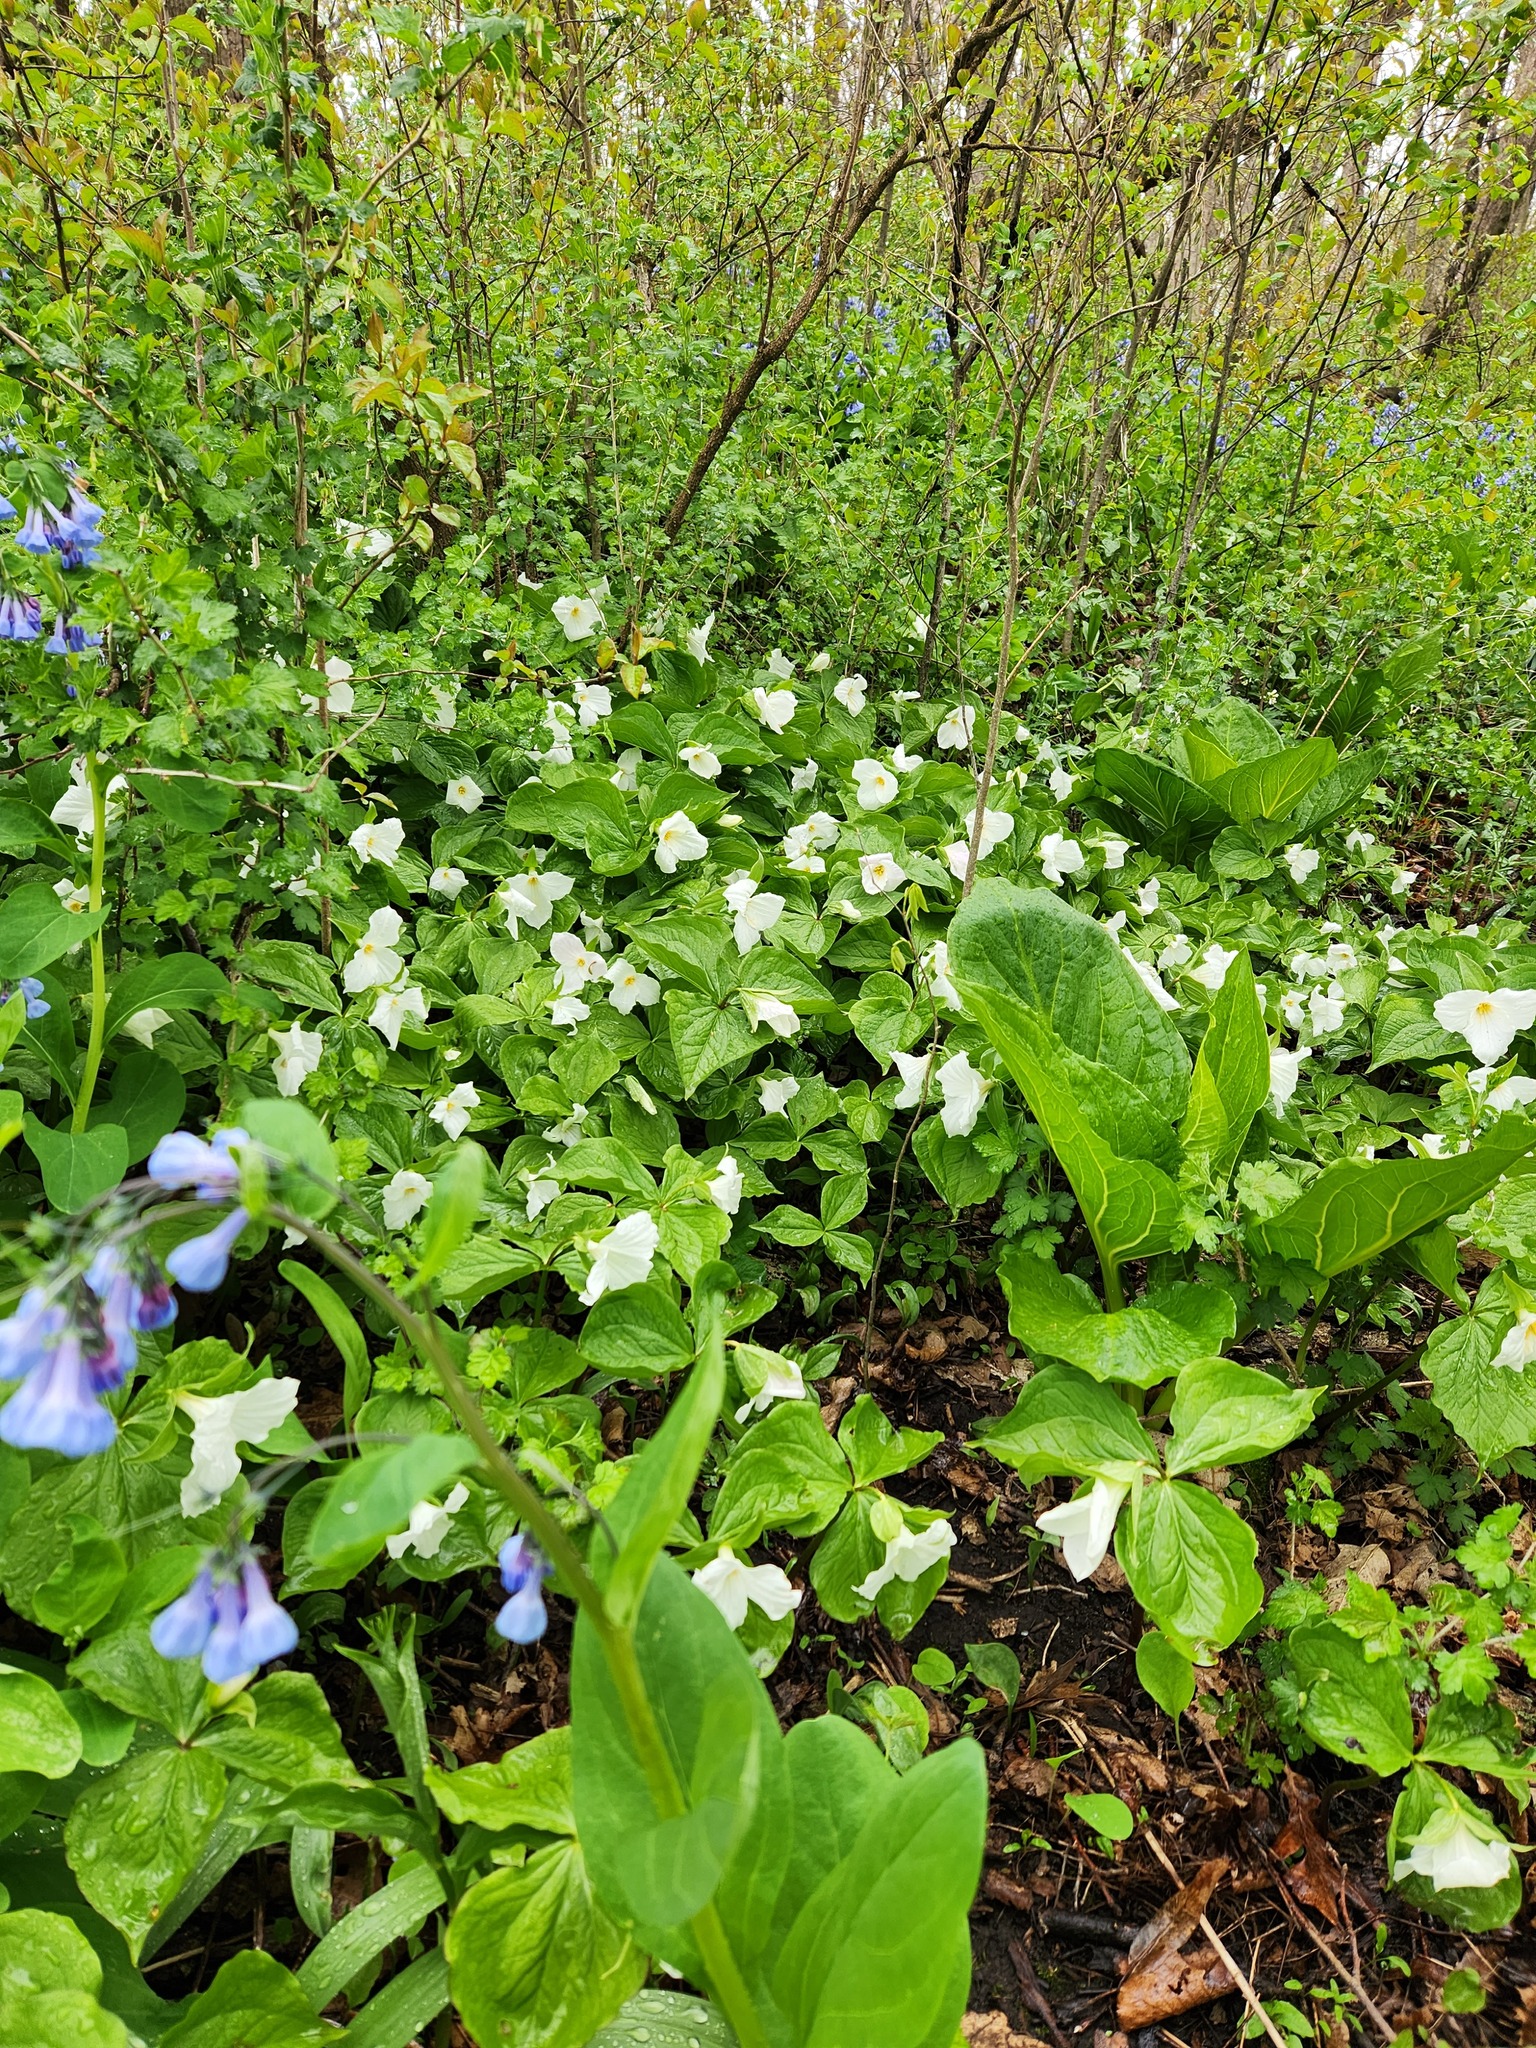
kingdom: Plantae
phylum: Tracheophyta
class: Liliopsida
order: Liliales
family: Melanthiaceae
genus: Trillium
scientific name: Trillium grandiflorum
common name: Great white trillium
